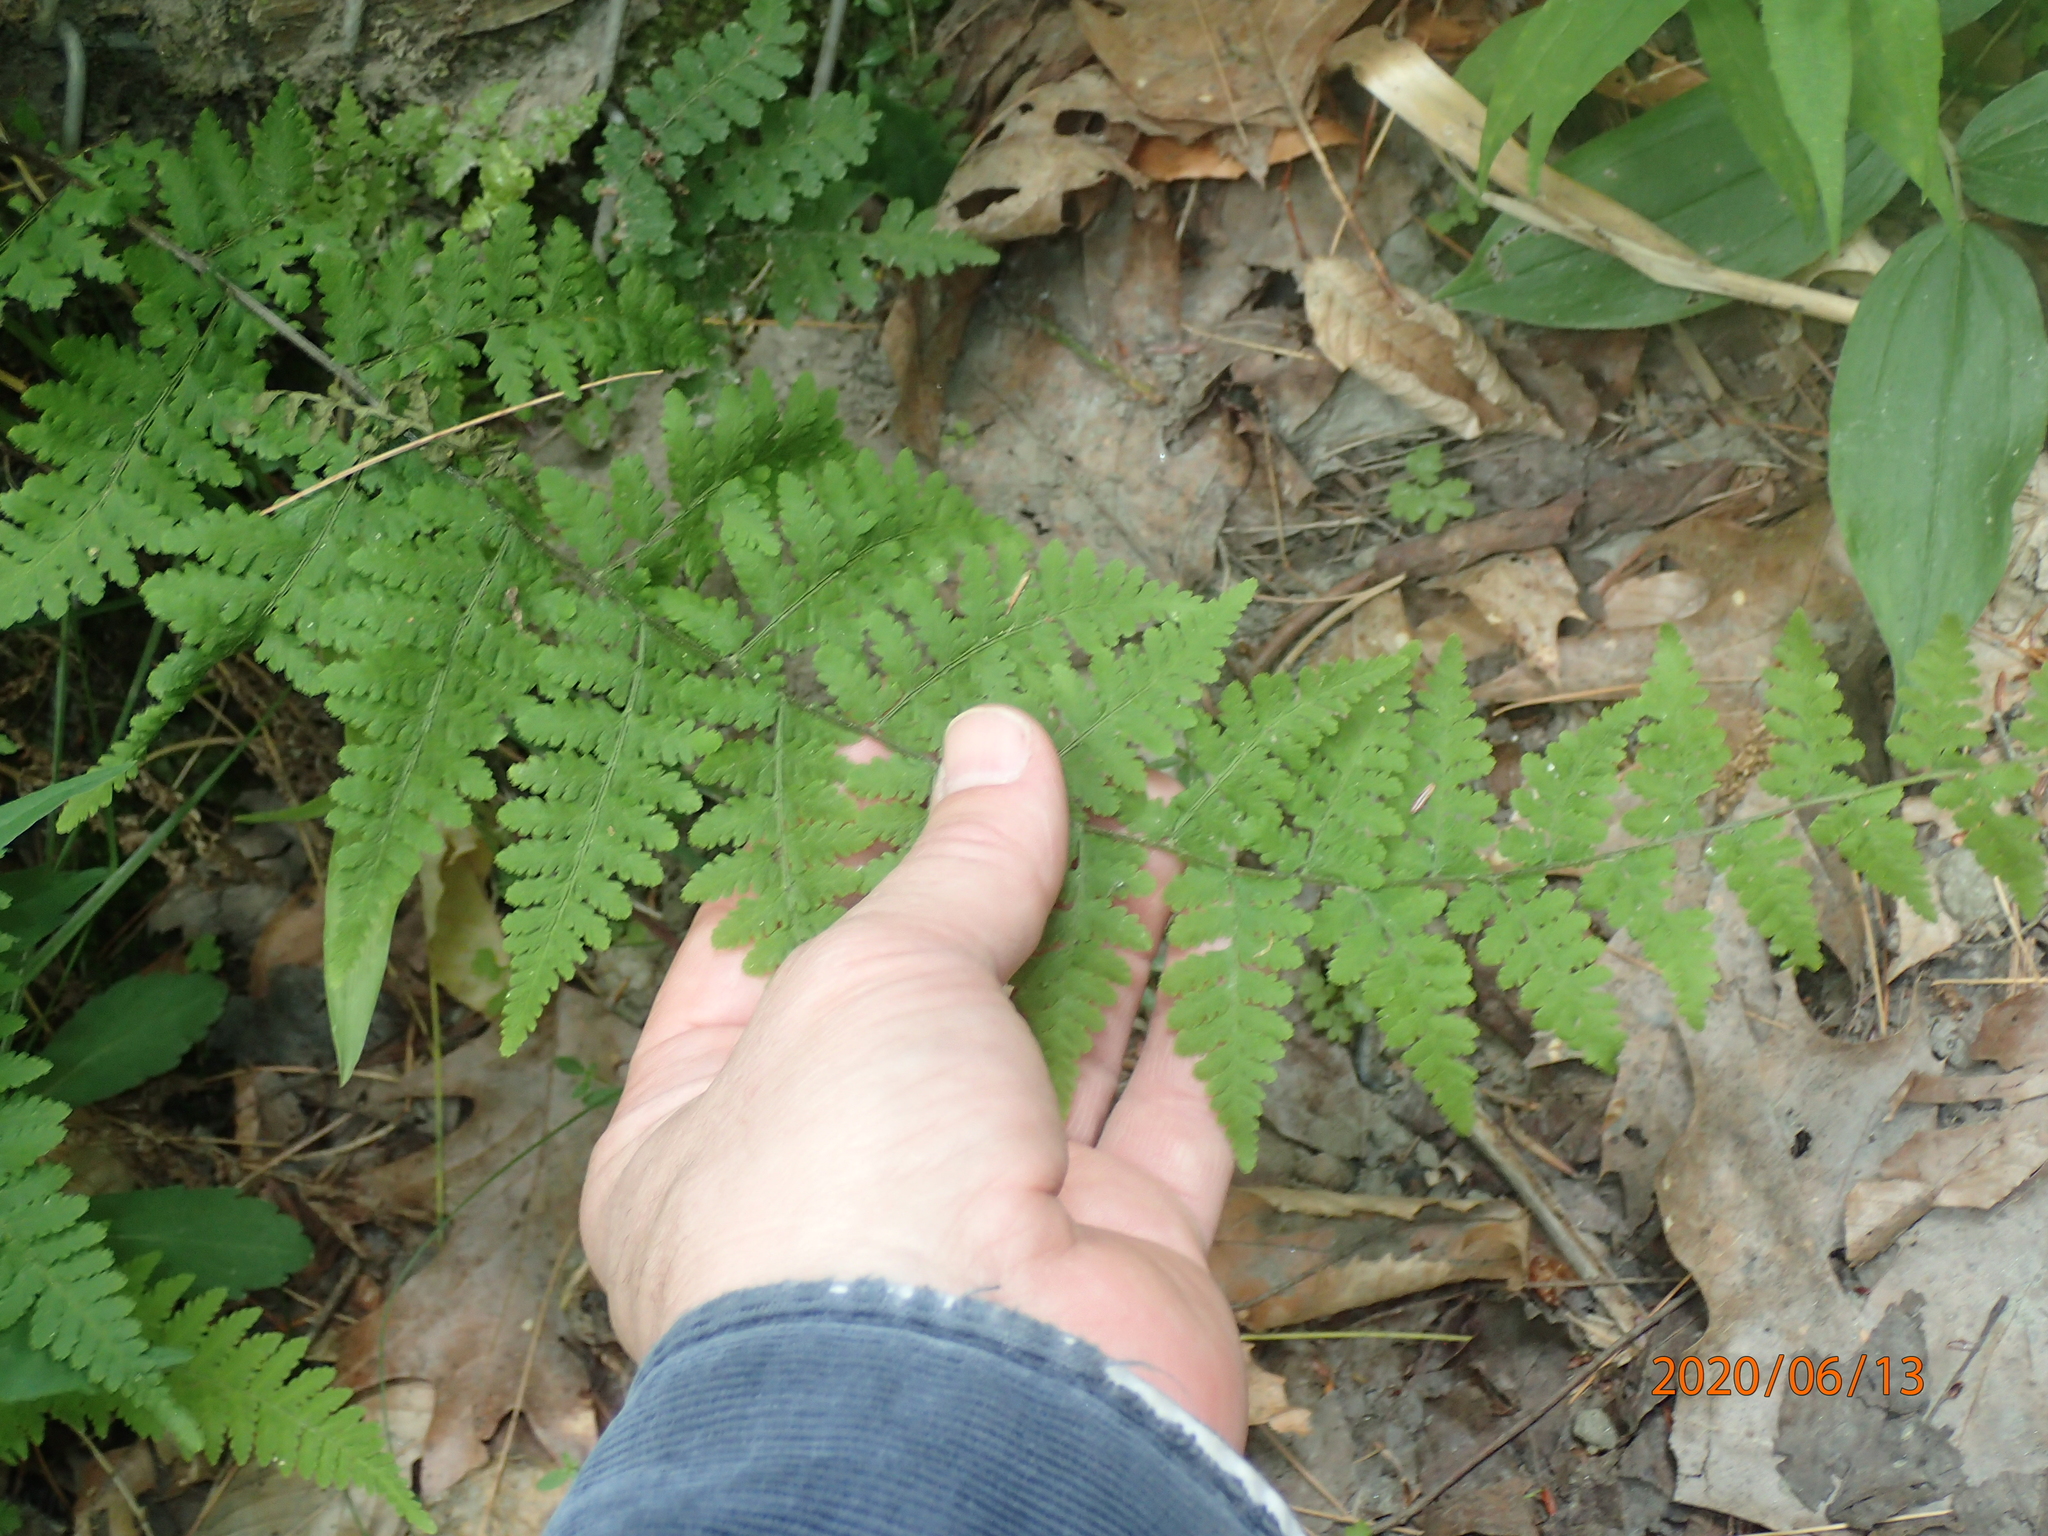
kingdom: Plantae
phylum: Tracheophyta
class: Polypodiopsida
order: Polypodiales
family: Cystopteridaceae
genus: Cystopteris
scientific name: Cystopteris bulbifera
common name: Bulblet bladder fern
